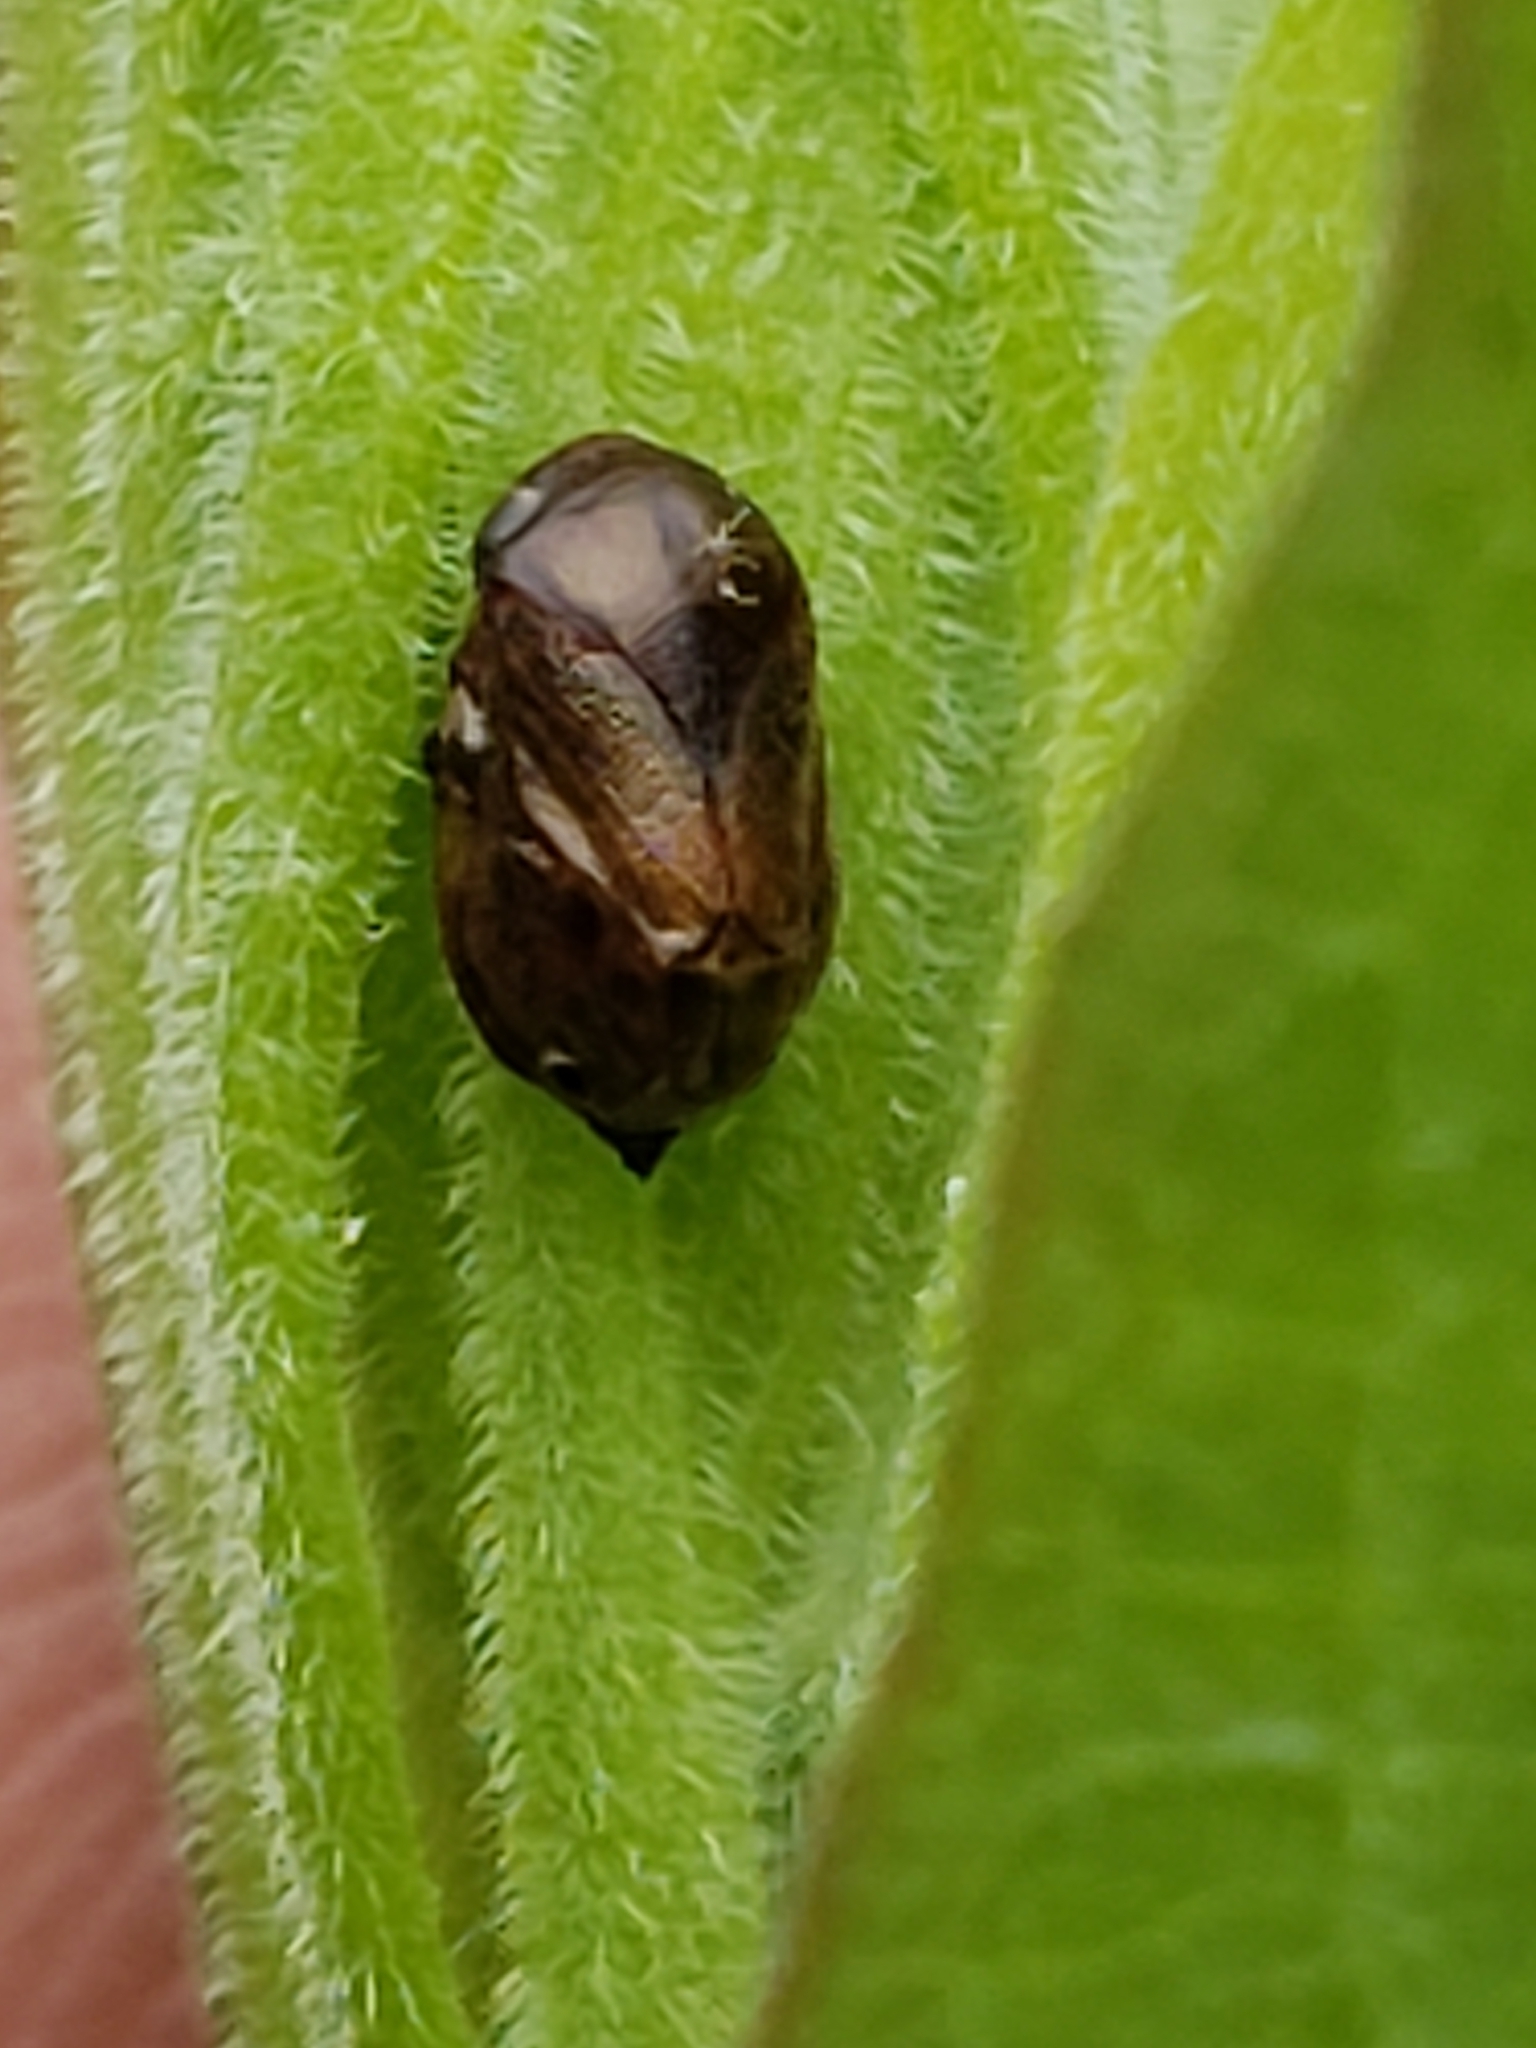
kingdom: Animalia
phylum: Arthropoda
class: Insecta
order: Hemiptera
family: Clastopteridae
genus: Clastoptera
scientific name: Clastoptera xanthocephala
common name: Sunflower spittlebug
